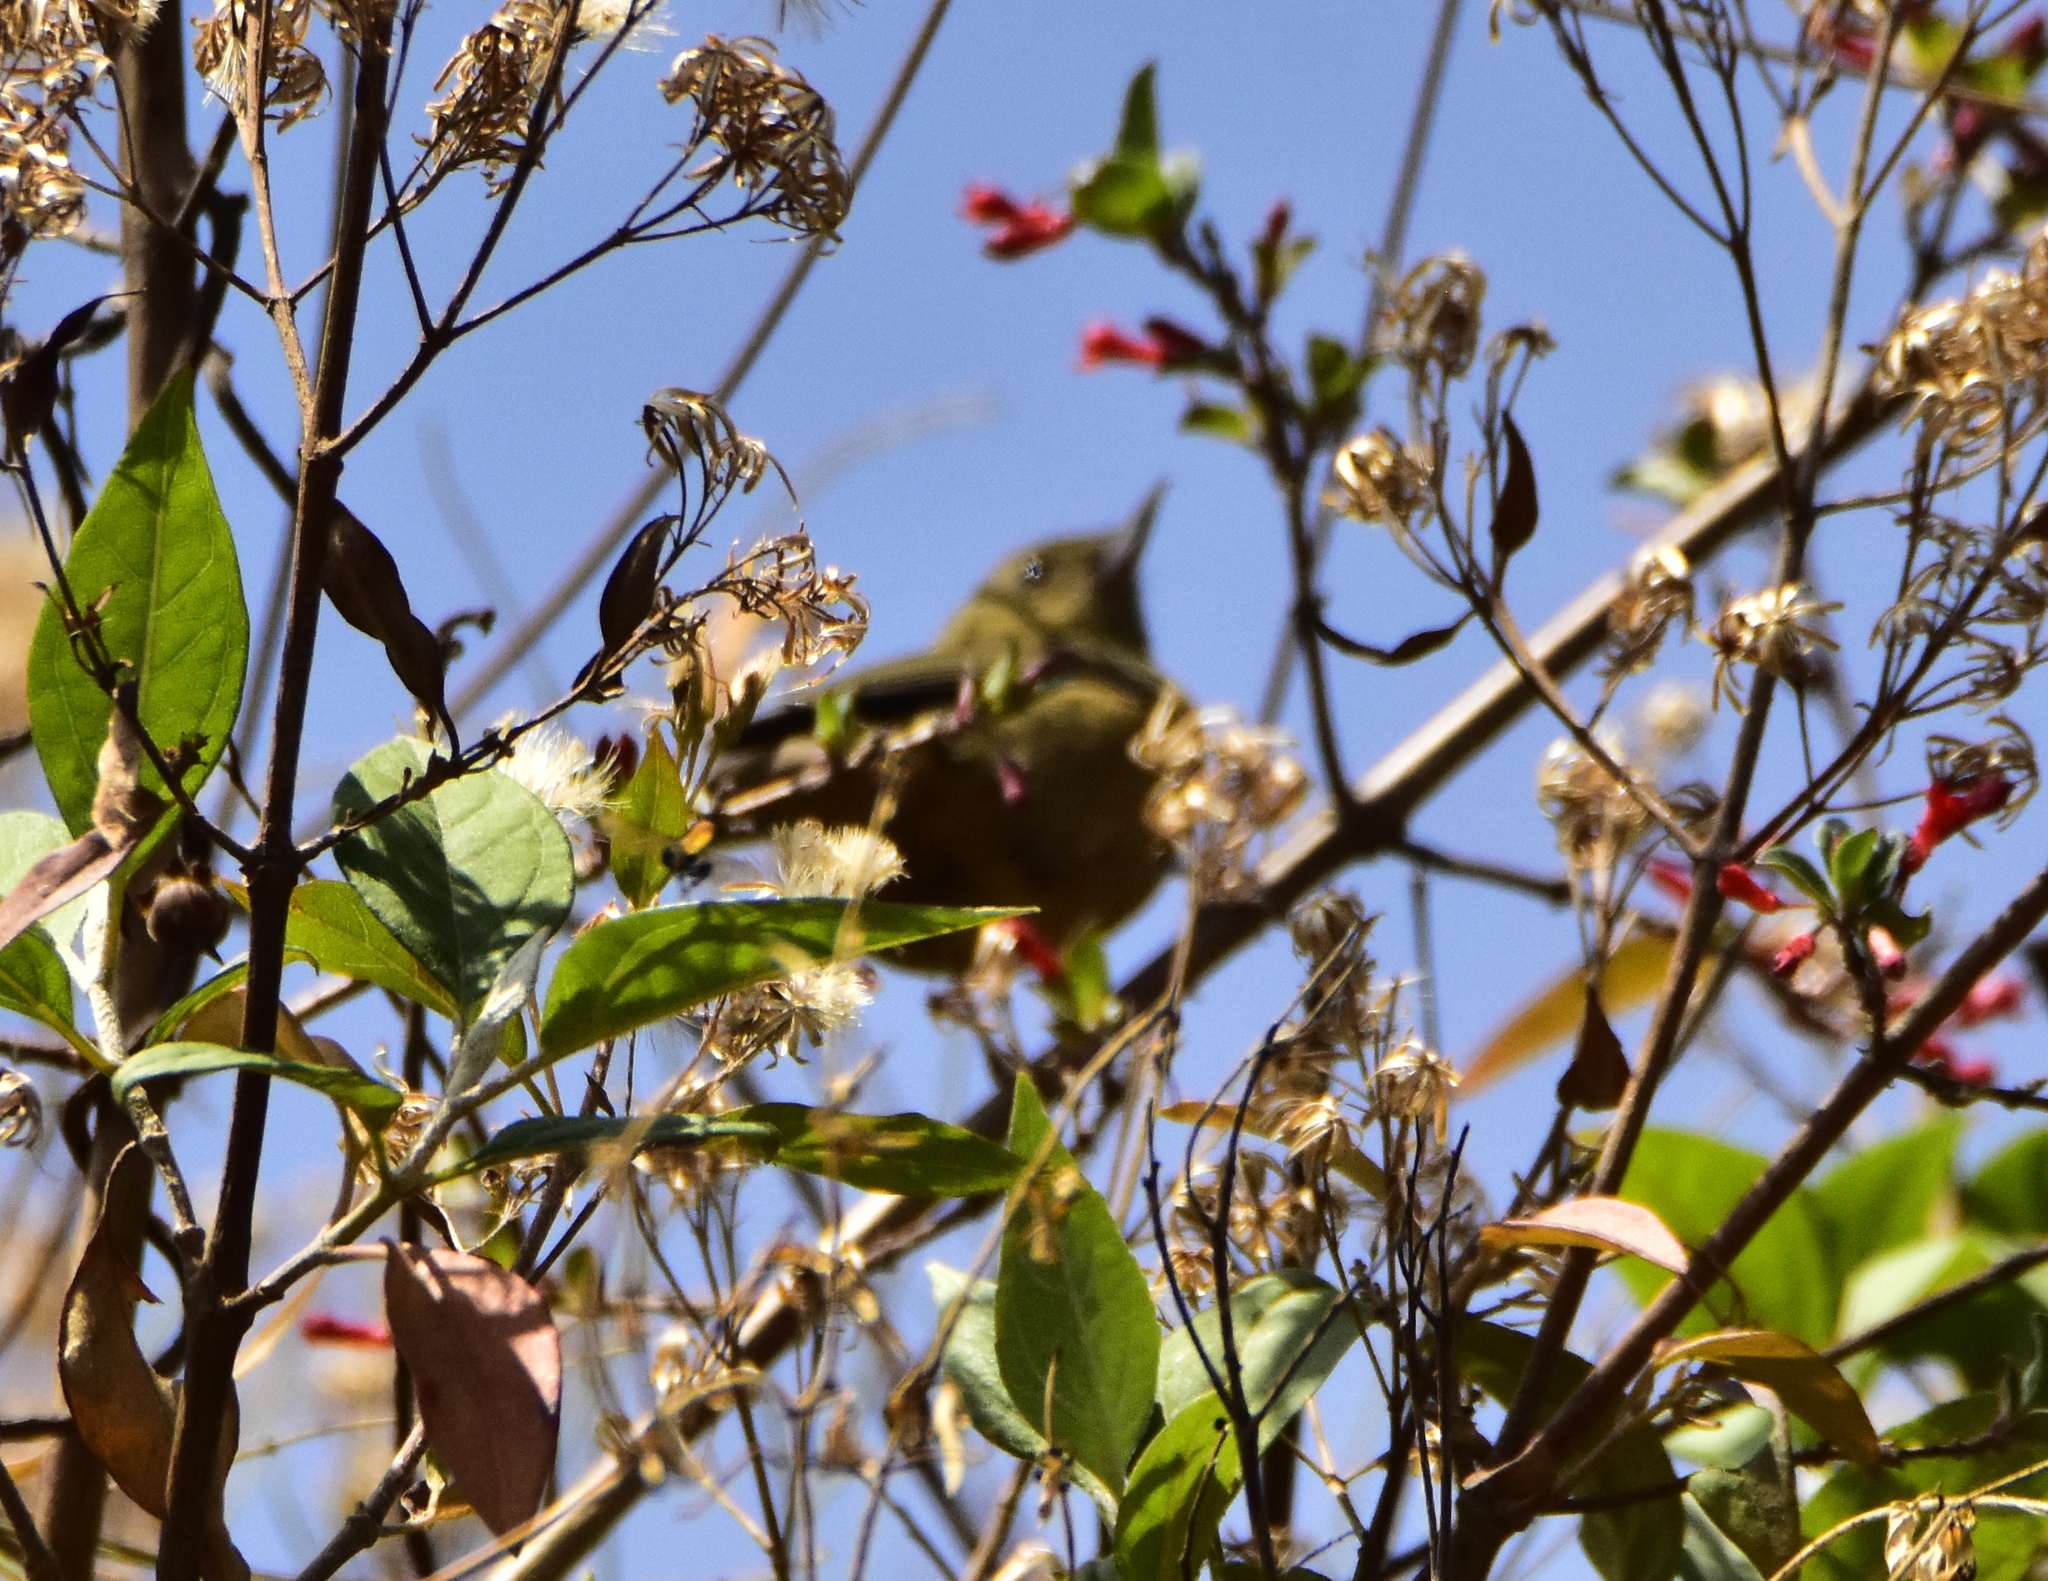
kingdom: Animalia
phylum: Chordata
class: Aves
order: Passeriformes
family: Thraupidae
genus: Diglossa
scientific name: Diglossa baritula
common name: Cinnamon-bellied flowerpiercer
